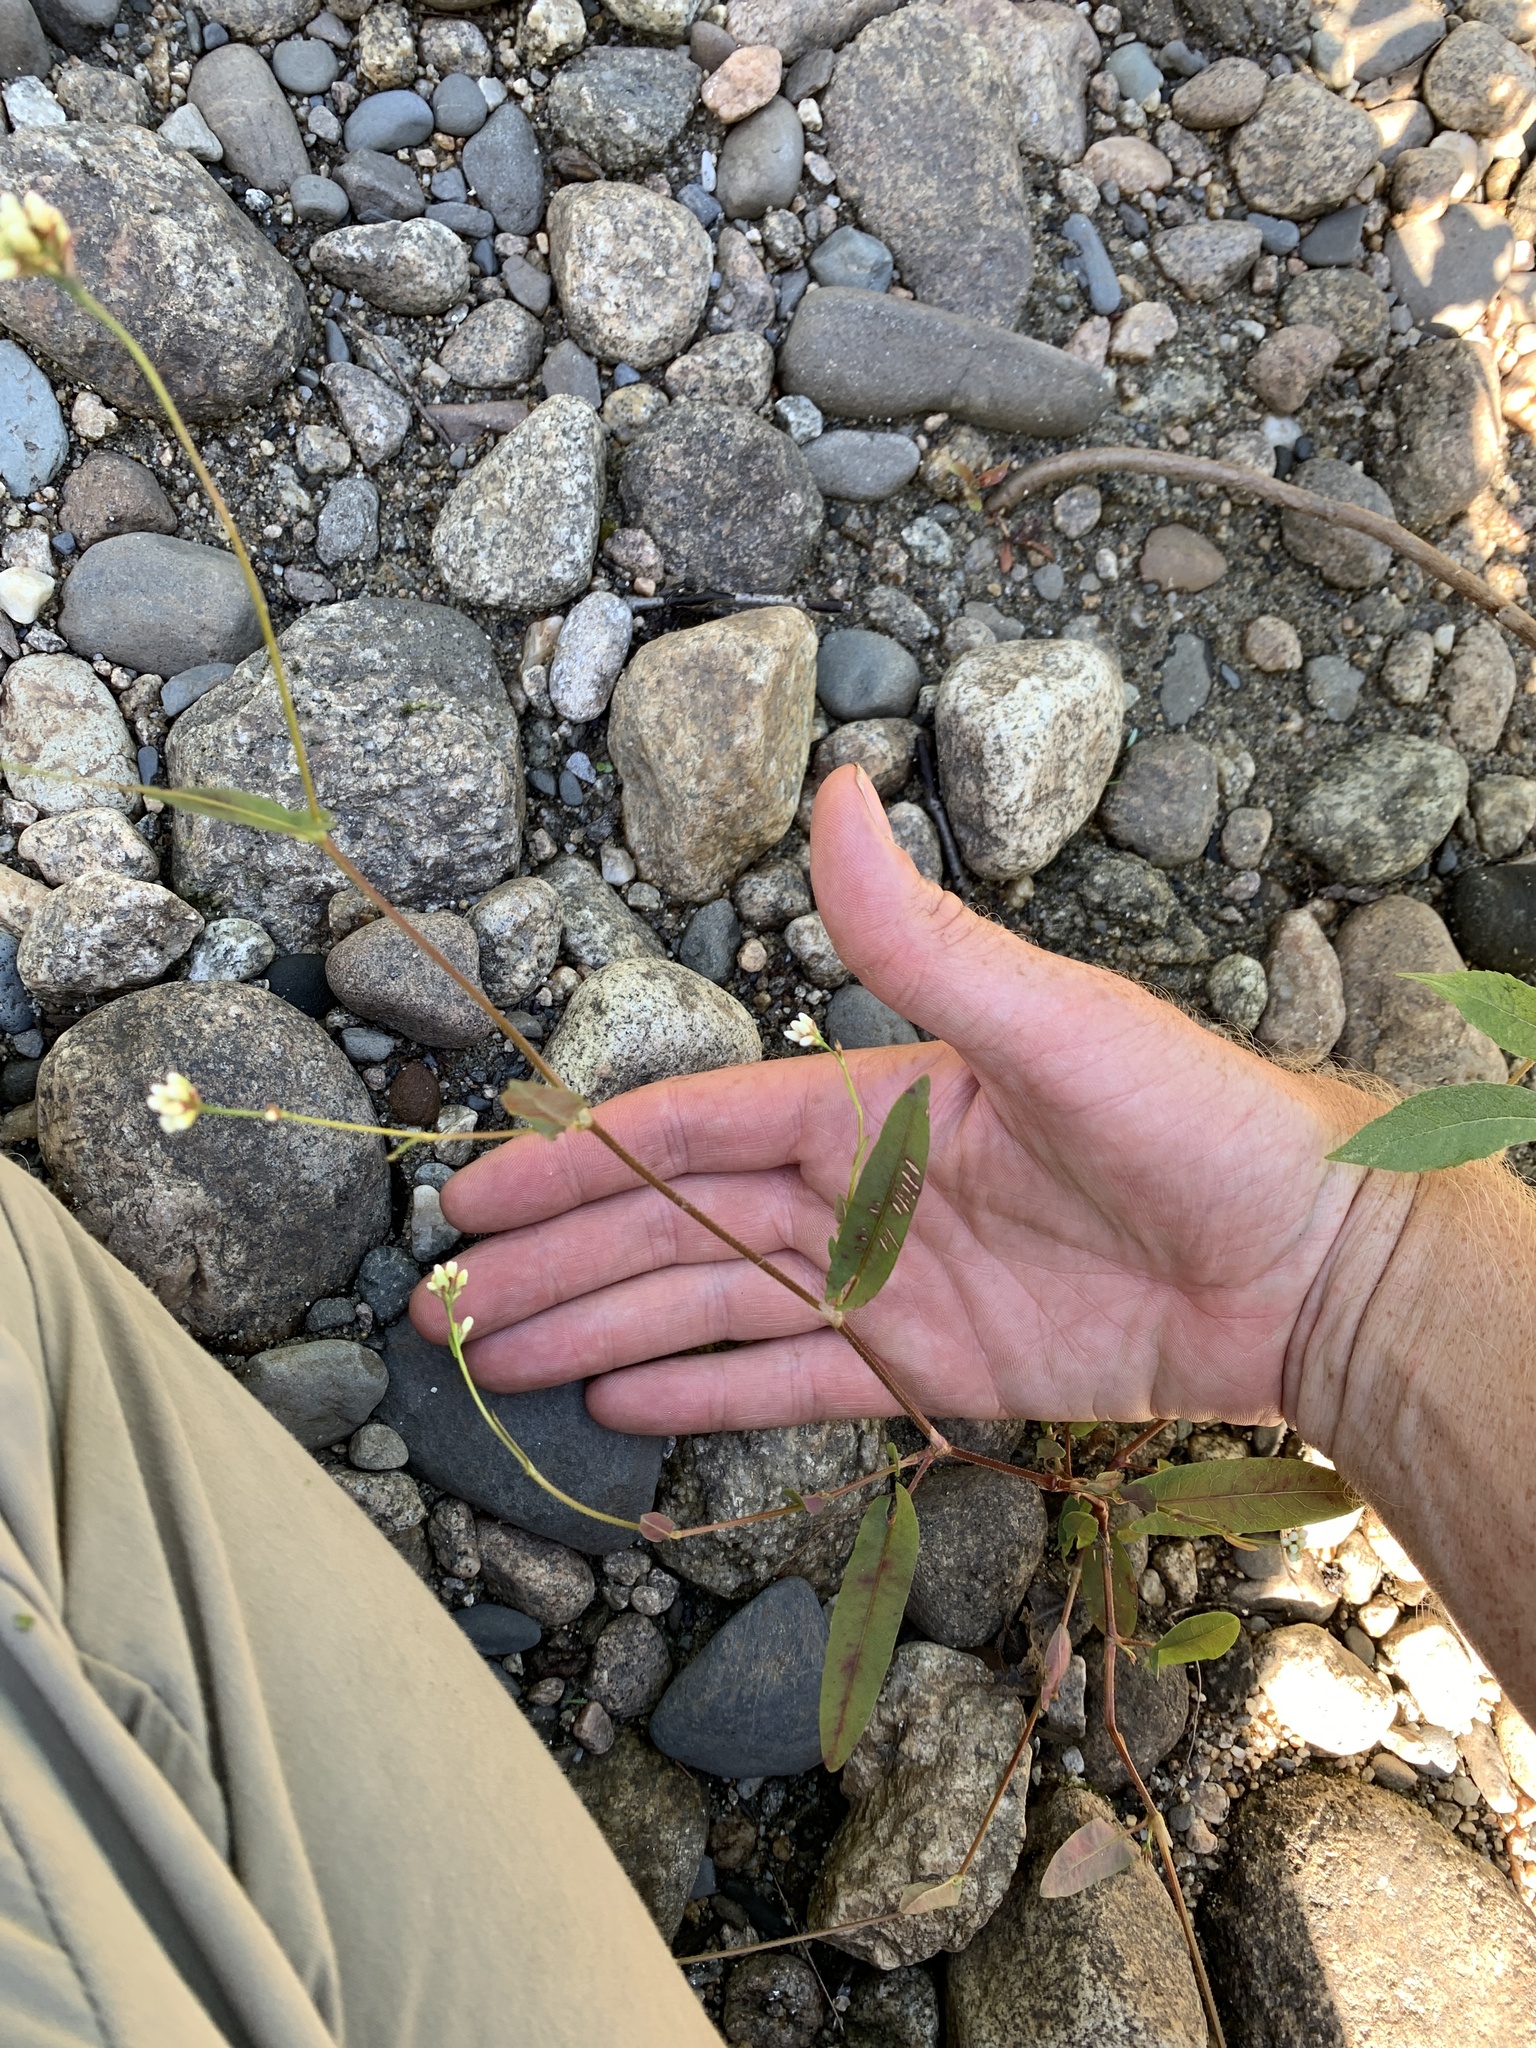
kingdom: Plantae
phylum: Tracheophyta
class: Magnoliopsida
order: Caryophyllales
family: Polygonaceae
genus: Persicaria
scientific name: Persicaria sagittata
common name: American tearthumb
